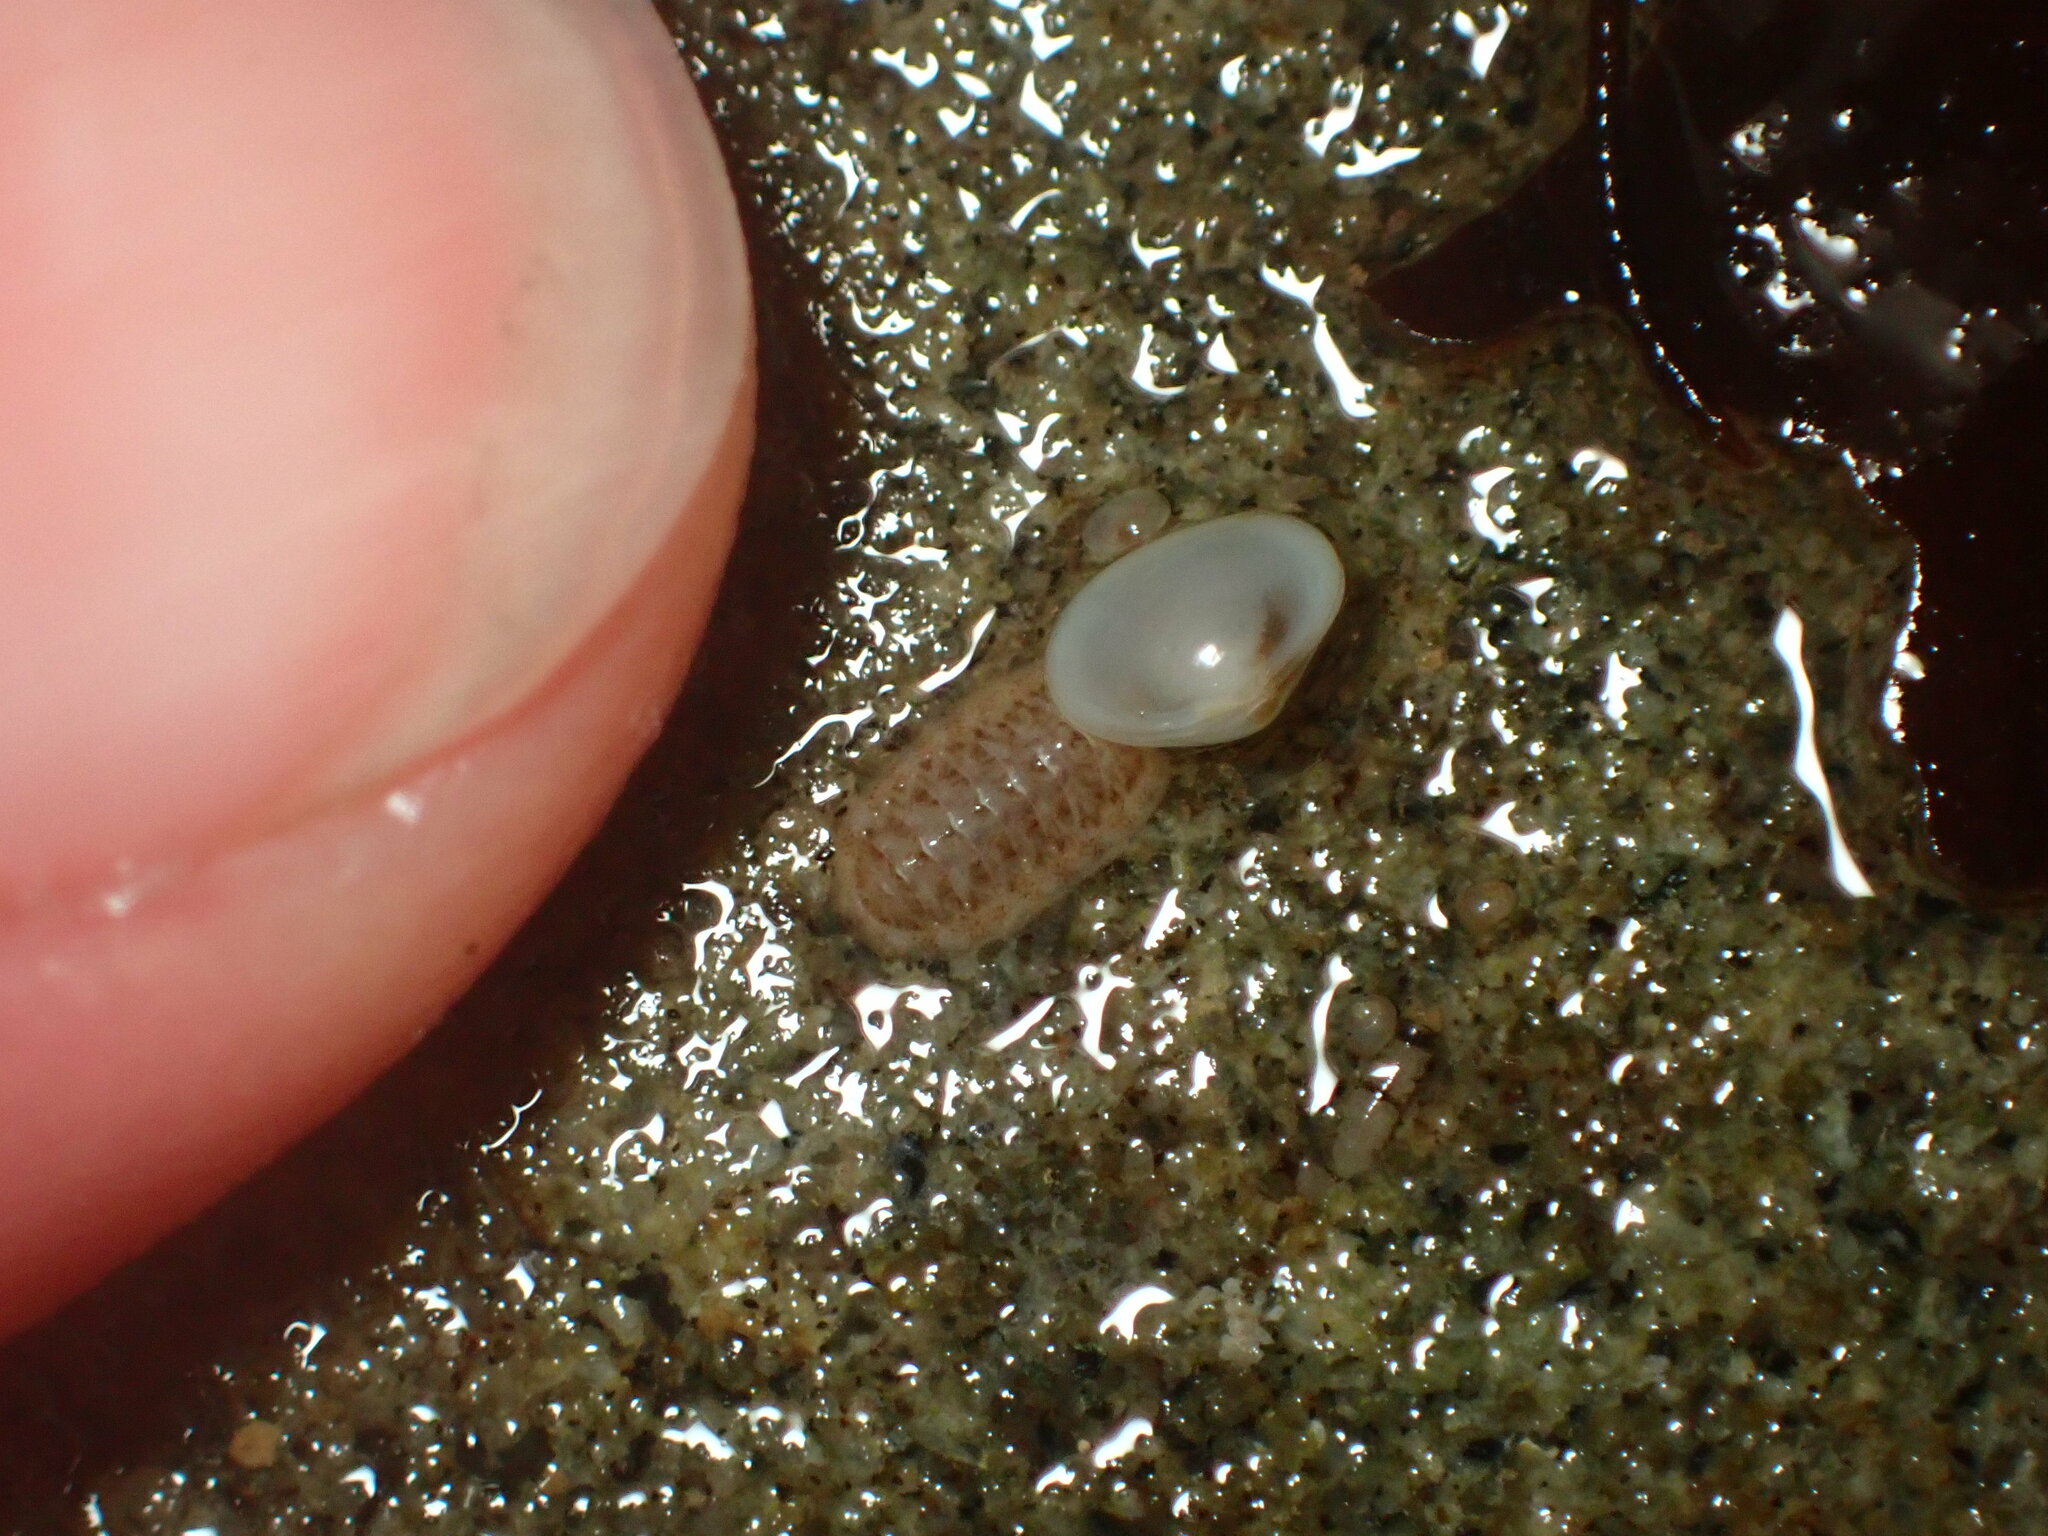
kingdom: Animalia
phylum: Mollusca
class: Bivalvia
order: Galeommatida
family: Lasaeidae
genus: Kellia
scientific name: Kellia laperousii
